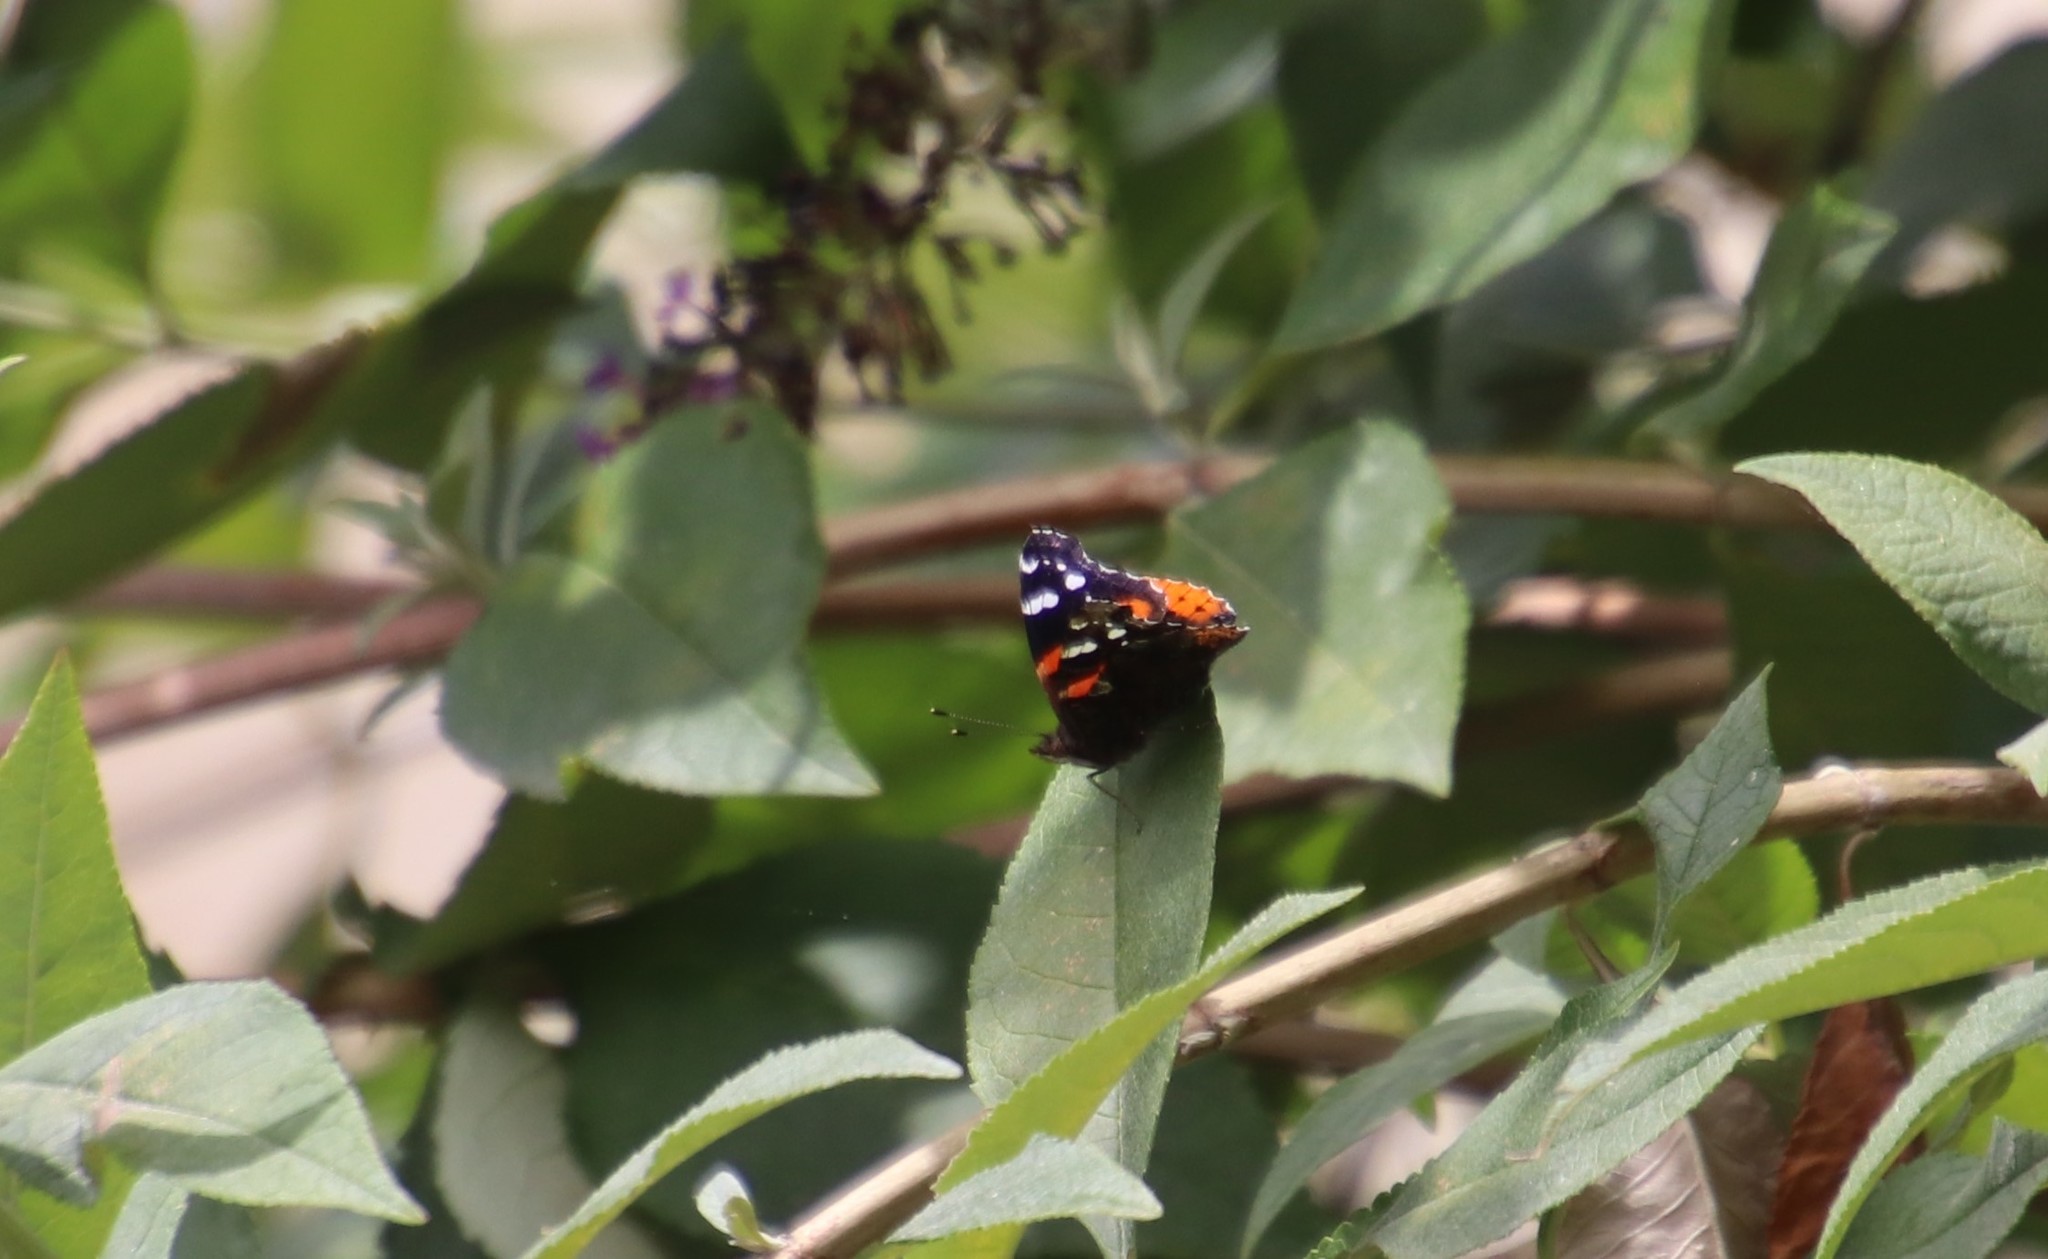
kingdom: Animalia
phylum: Arthropoda
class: Insecta
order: Lepidoptera
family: Nymphalidae
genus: Vanessa
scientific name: Vanessa atalanta
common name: Red admiral
